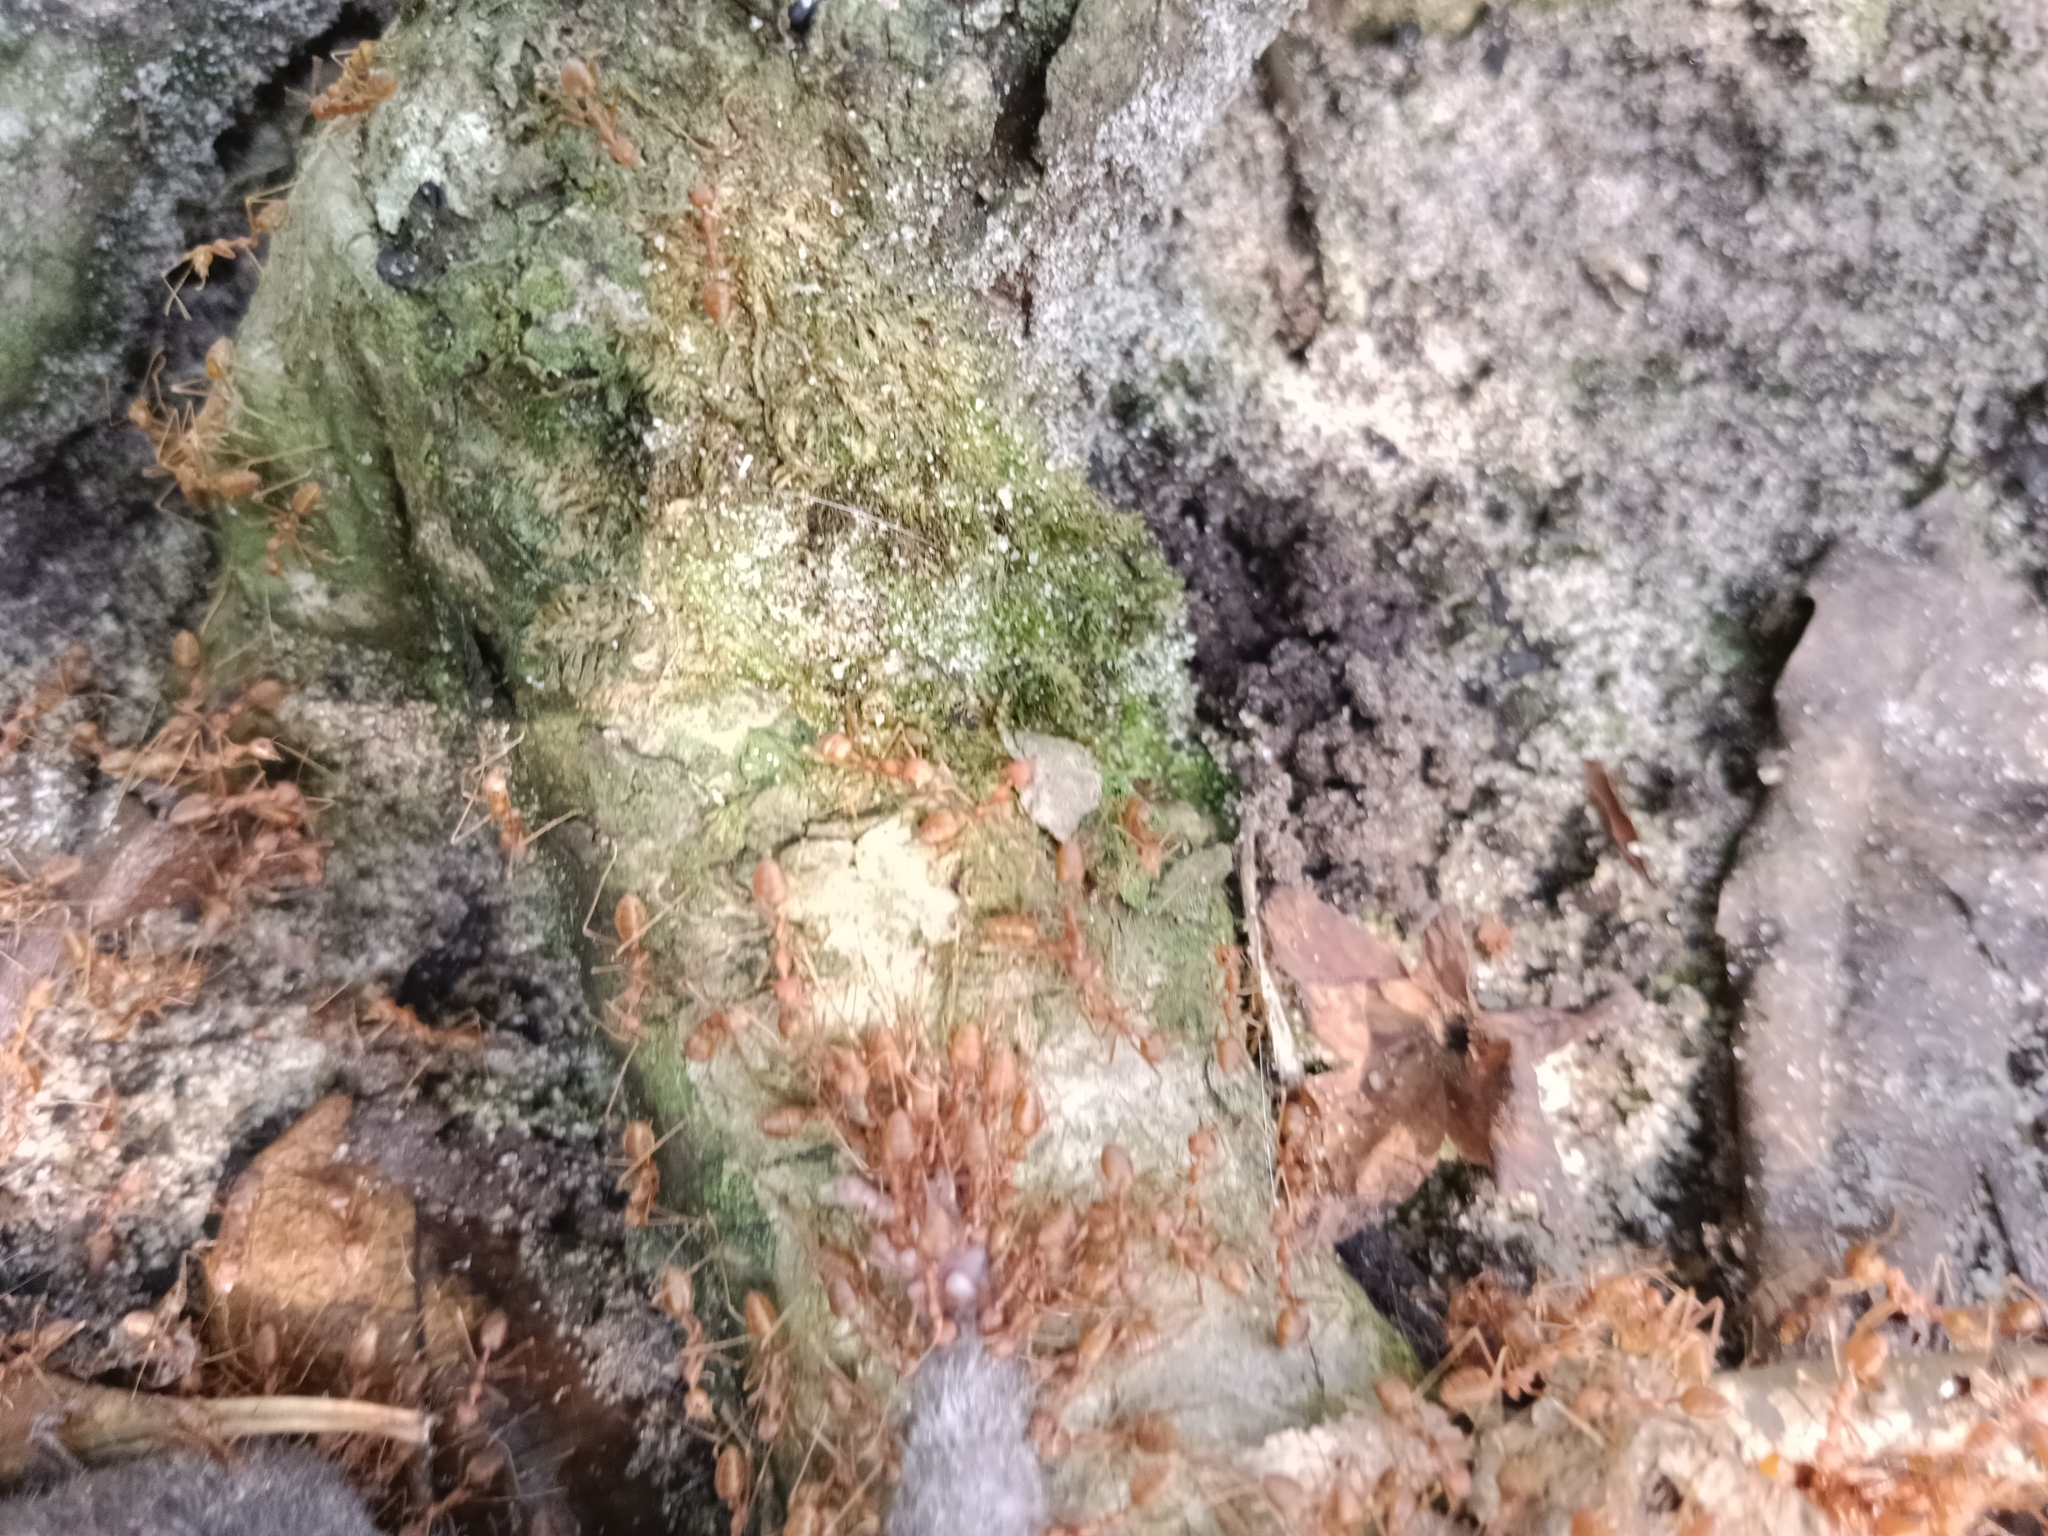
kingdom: Animalia
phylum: Arthropoda
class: Insecta
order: Hymenoptera
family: Formicidae
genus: Oecophylla
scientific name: Oecophylla smaragdina
